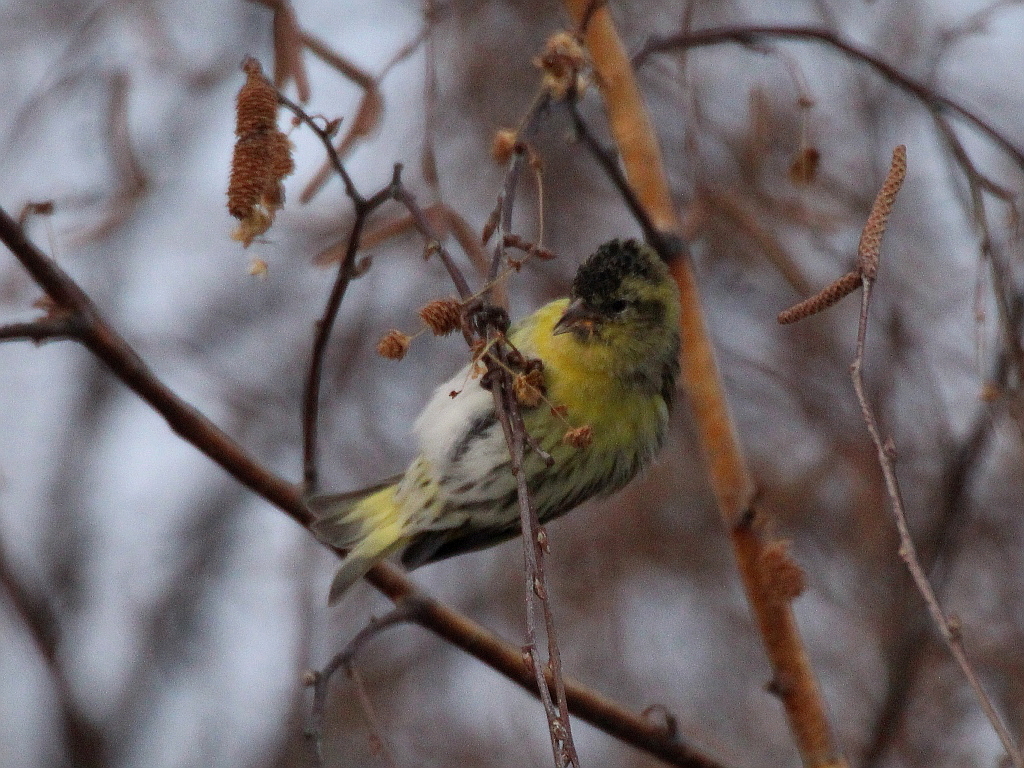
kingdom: Animalia
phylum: Chordata
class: Aves
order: Passeriformes
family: Fringillidae
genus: Spinus
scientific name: Spinus spinus
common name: Eurasian siskin
